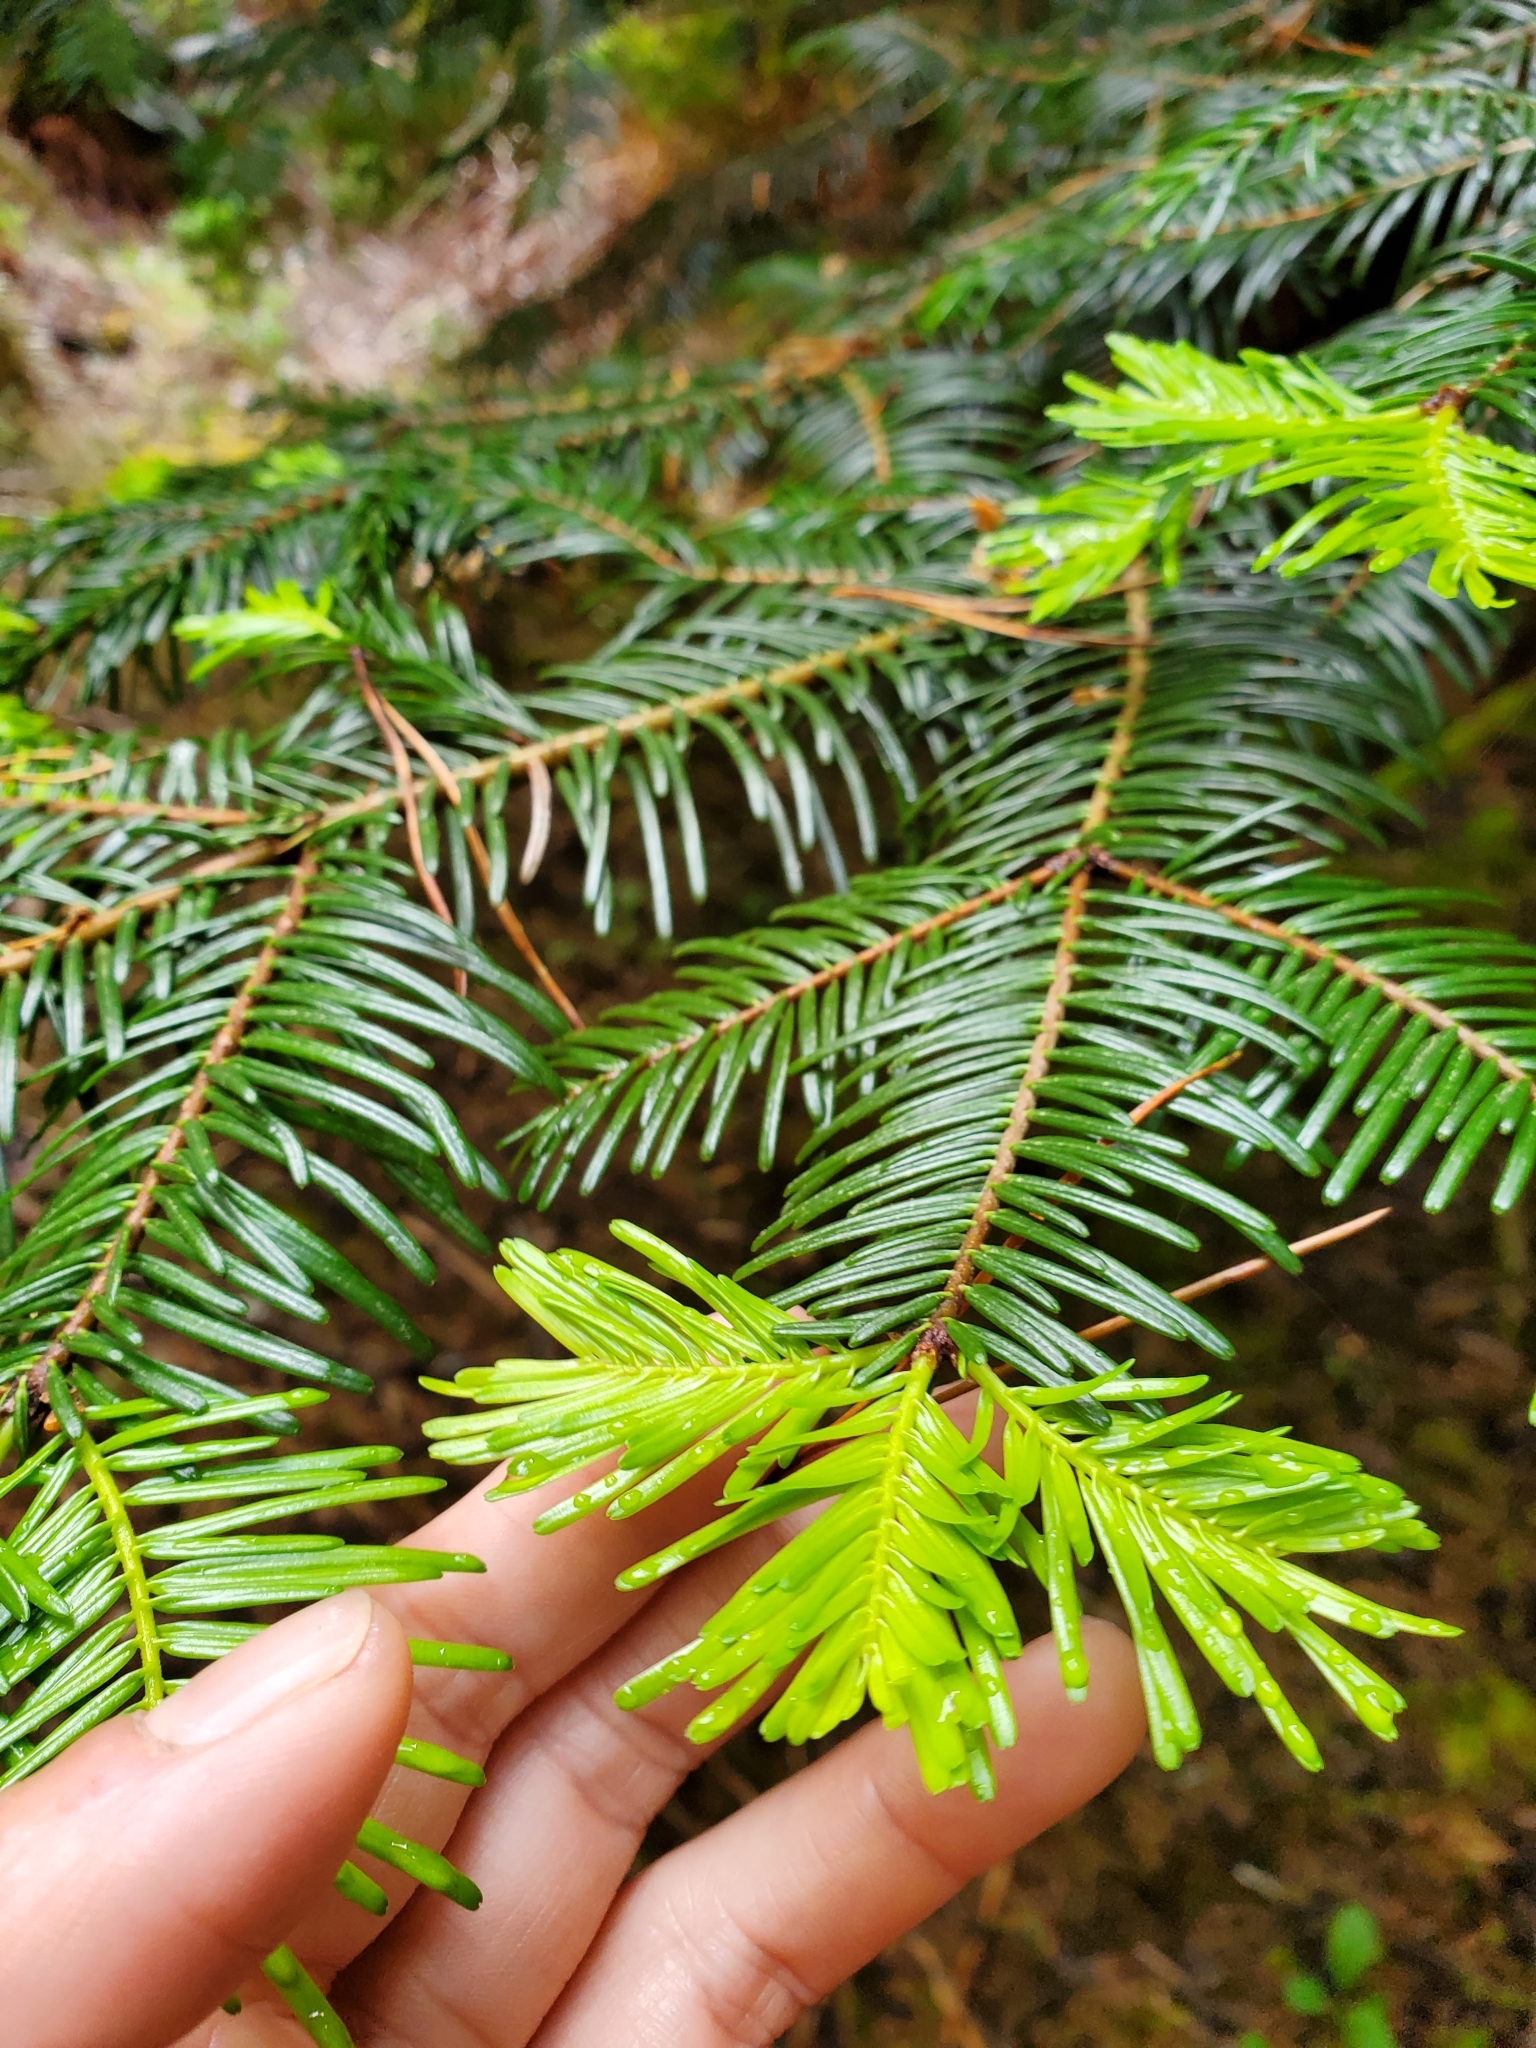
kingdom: Plantae
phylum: Tracheophyta
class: Pinopsida
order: Pinales
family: Pinaceae
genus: Abies
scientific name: Abies grandis
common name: Giant fir
